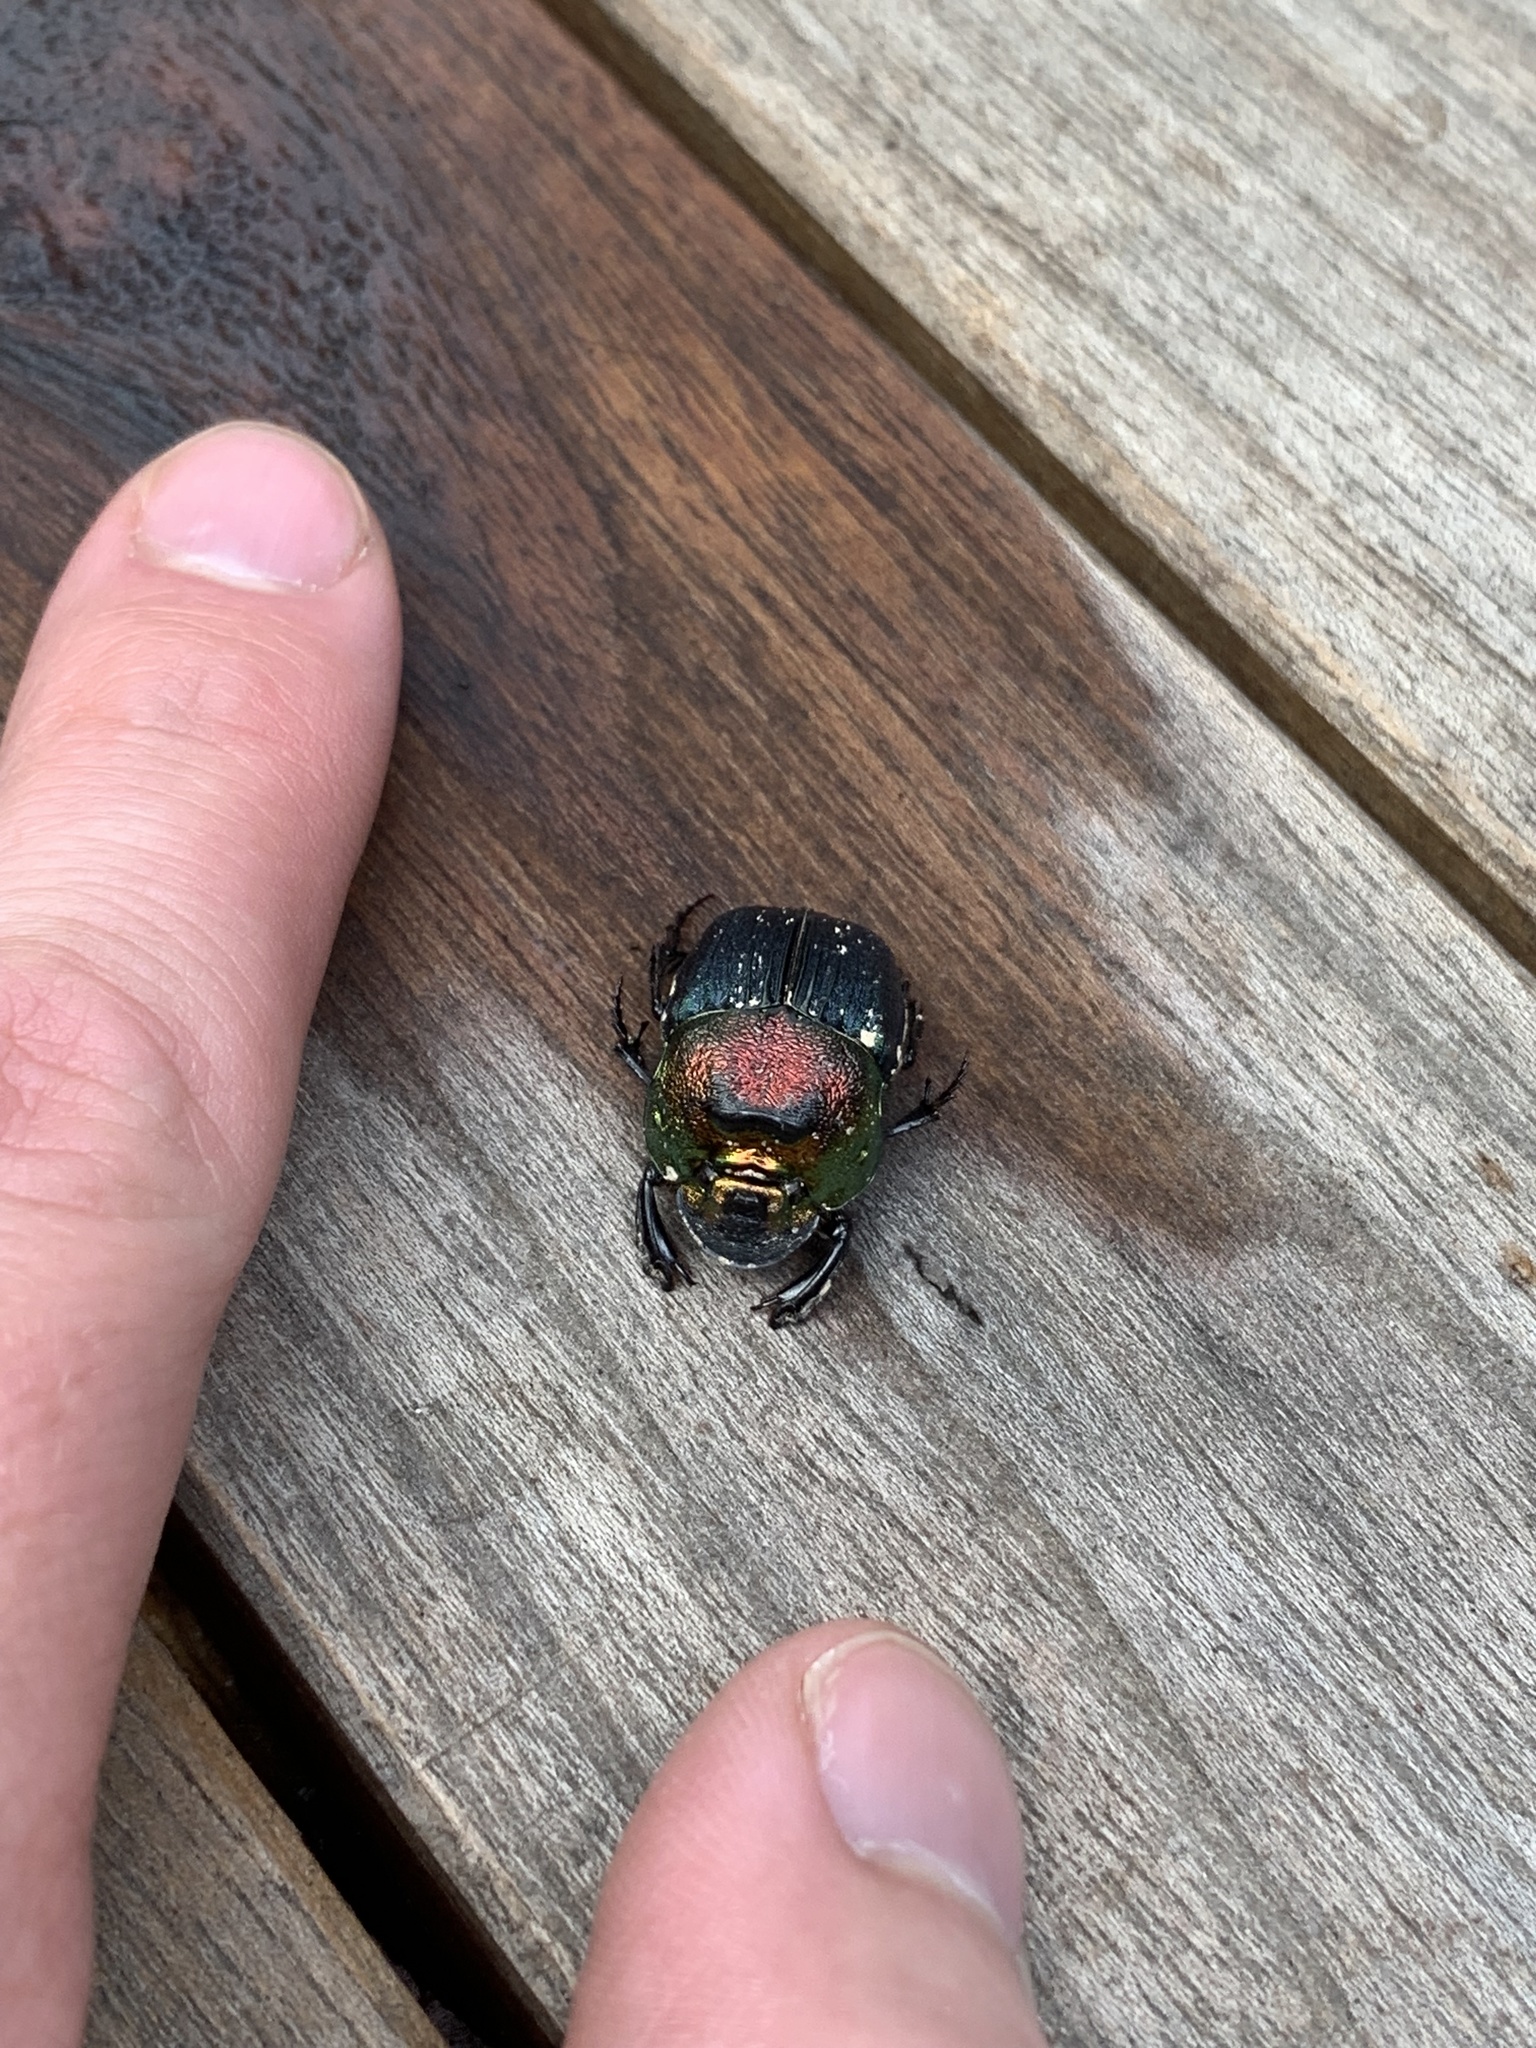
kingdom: Animalia
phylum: Arthropoda
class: Insecta
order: Coleoptera
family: Scarabaeidae
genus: Phanaeus
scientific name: Phanaeus vindex
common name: Rainbow scarab
